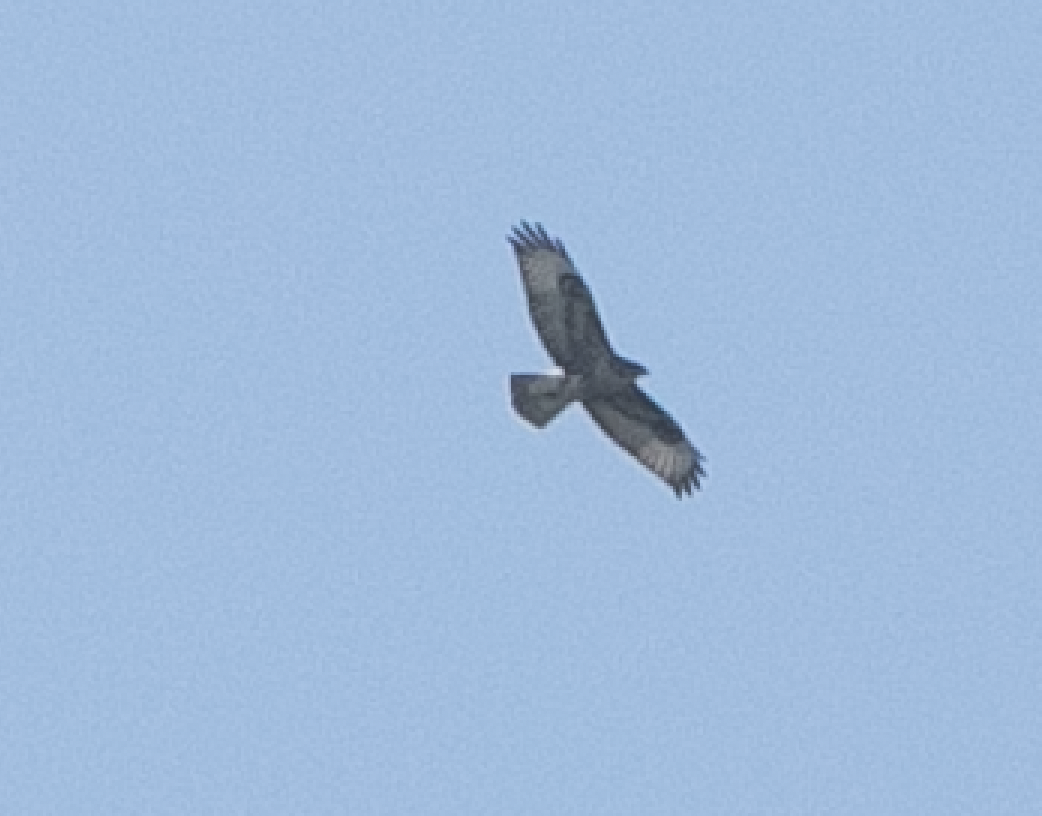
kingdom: Animalia
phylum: Chordata
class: Aves
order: Accipitriformes
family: Accipitridae
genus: Buteo
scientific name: Buteo buteo
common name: Common buzzard
